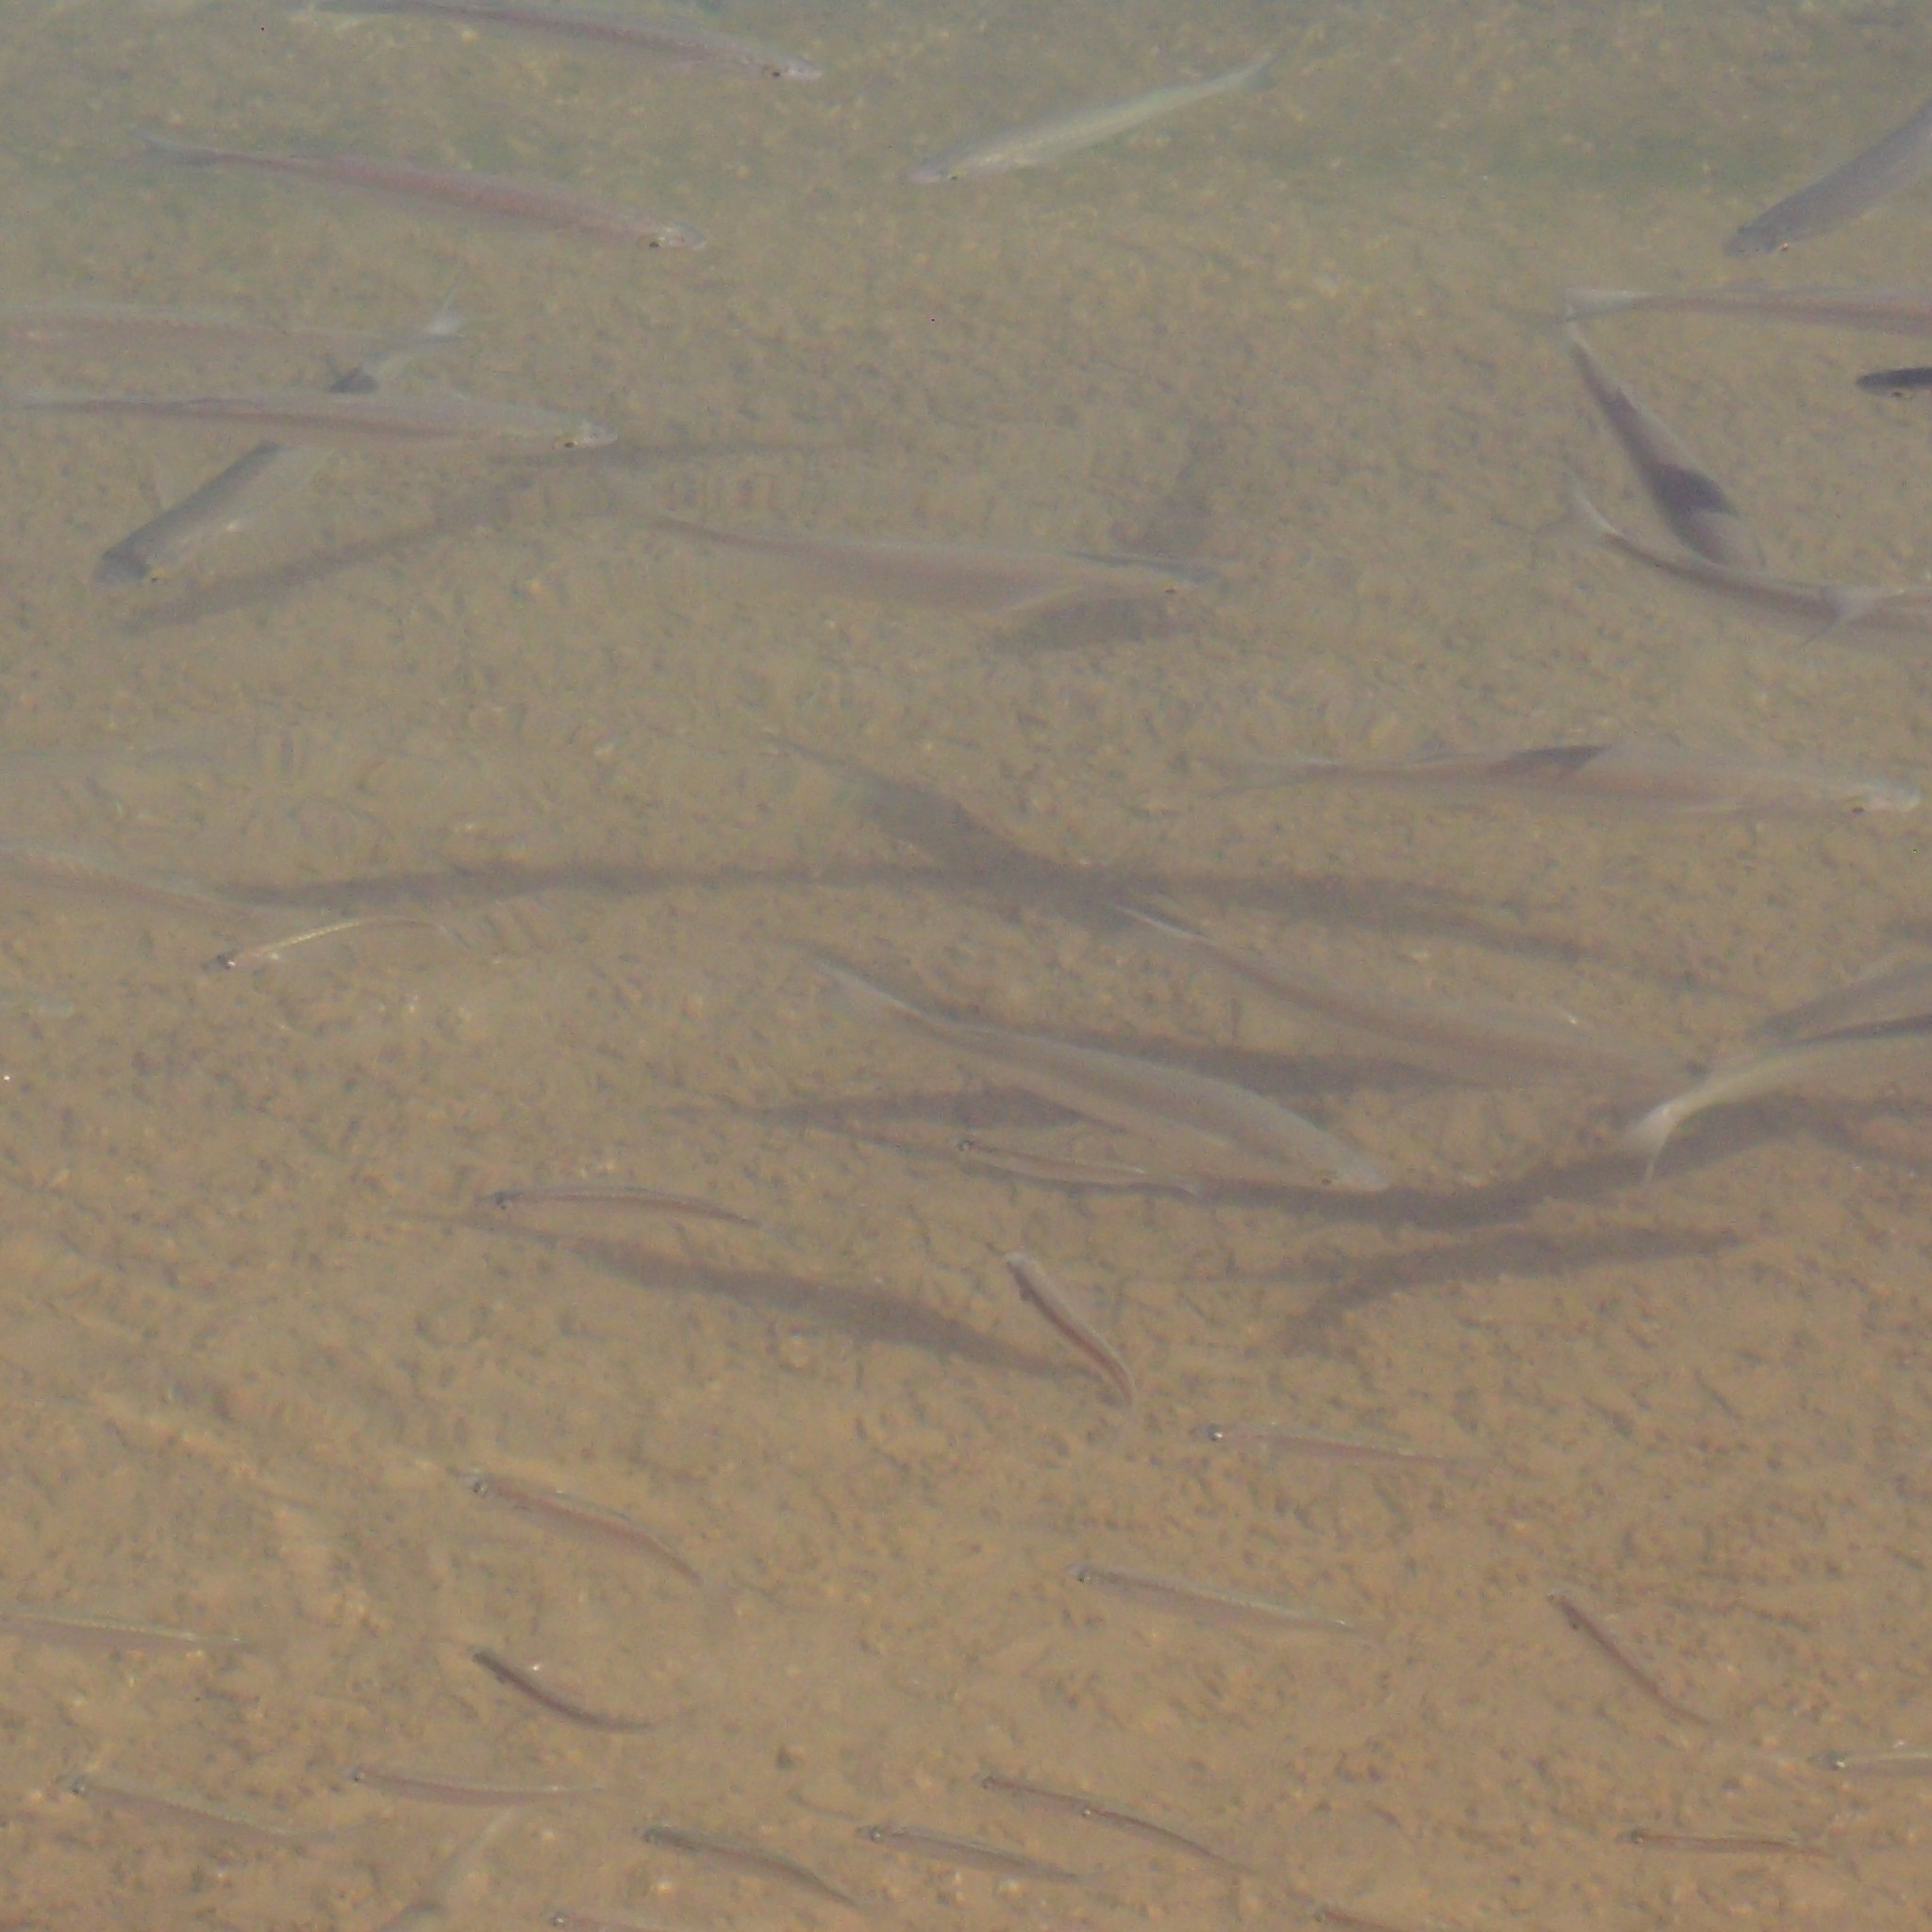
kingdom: Animalia
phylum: Chordata
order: Mugiliformes
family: Mugilidae
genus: Aldrichetta
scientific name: Aldrichetta forsteri
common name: Yellow-eye mullet
